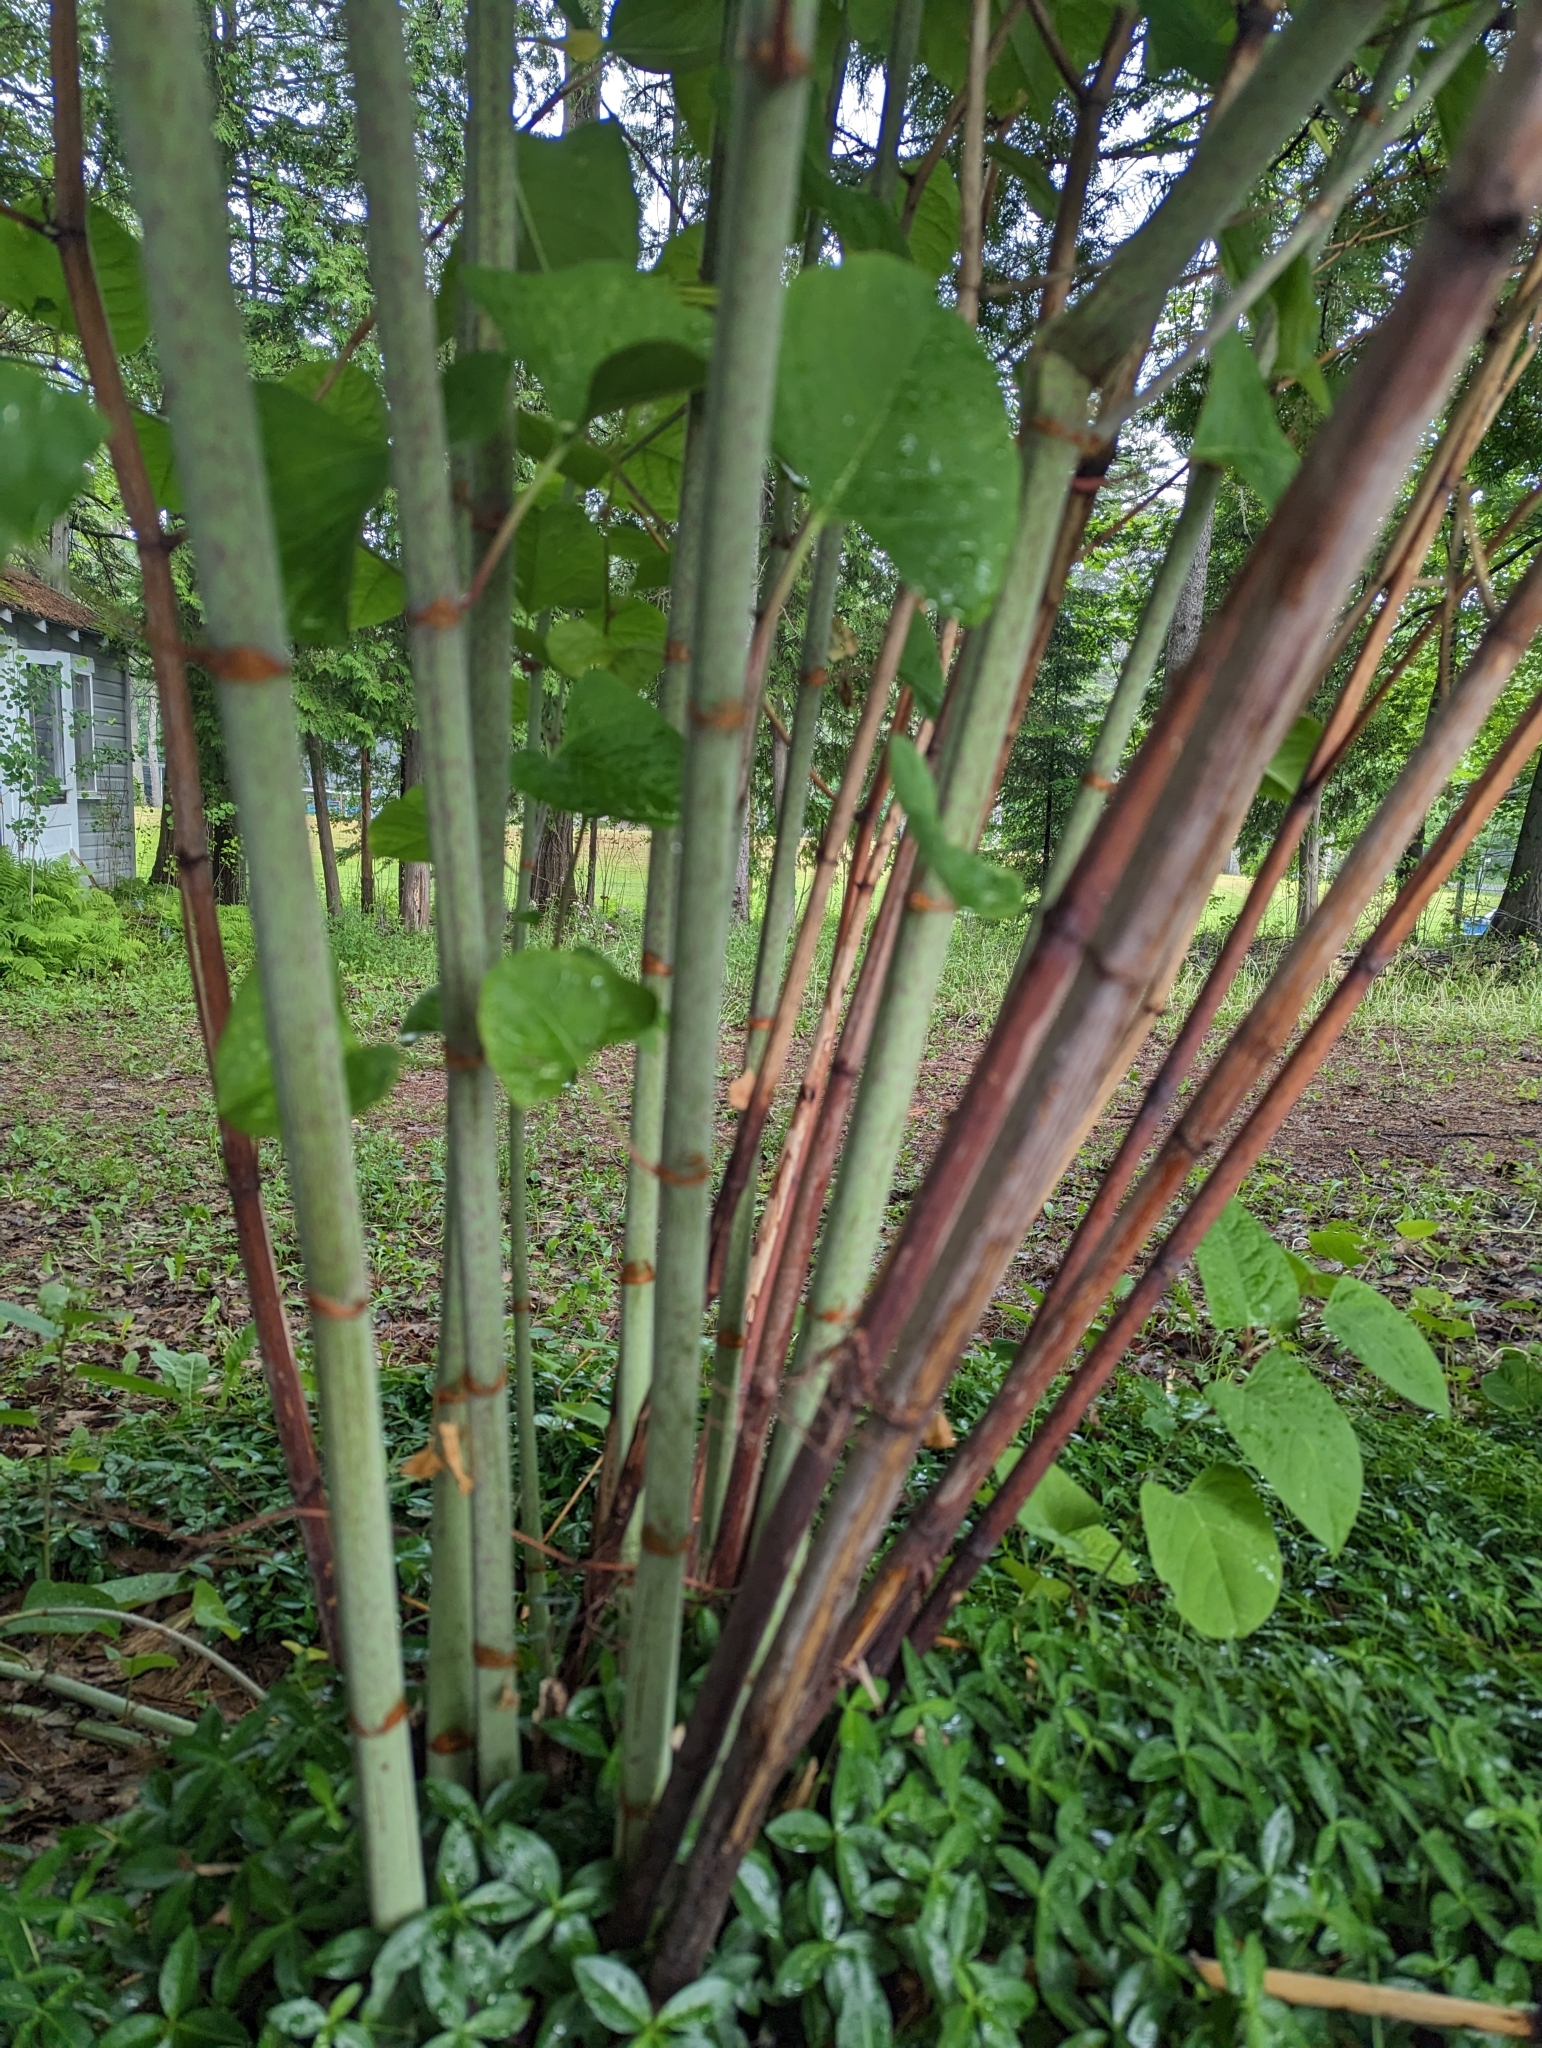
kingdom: Plantae
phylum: Tracheophyta
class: Magnoliopsida
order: Caryophyllales
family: Polygonaceae
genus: Reynoutria
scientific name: Reynoutria japonica
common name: Japanese knotweed
